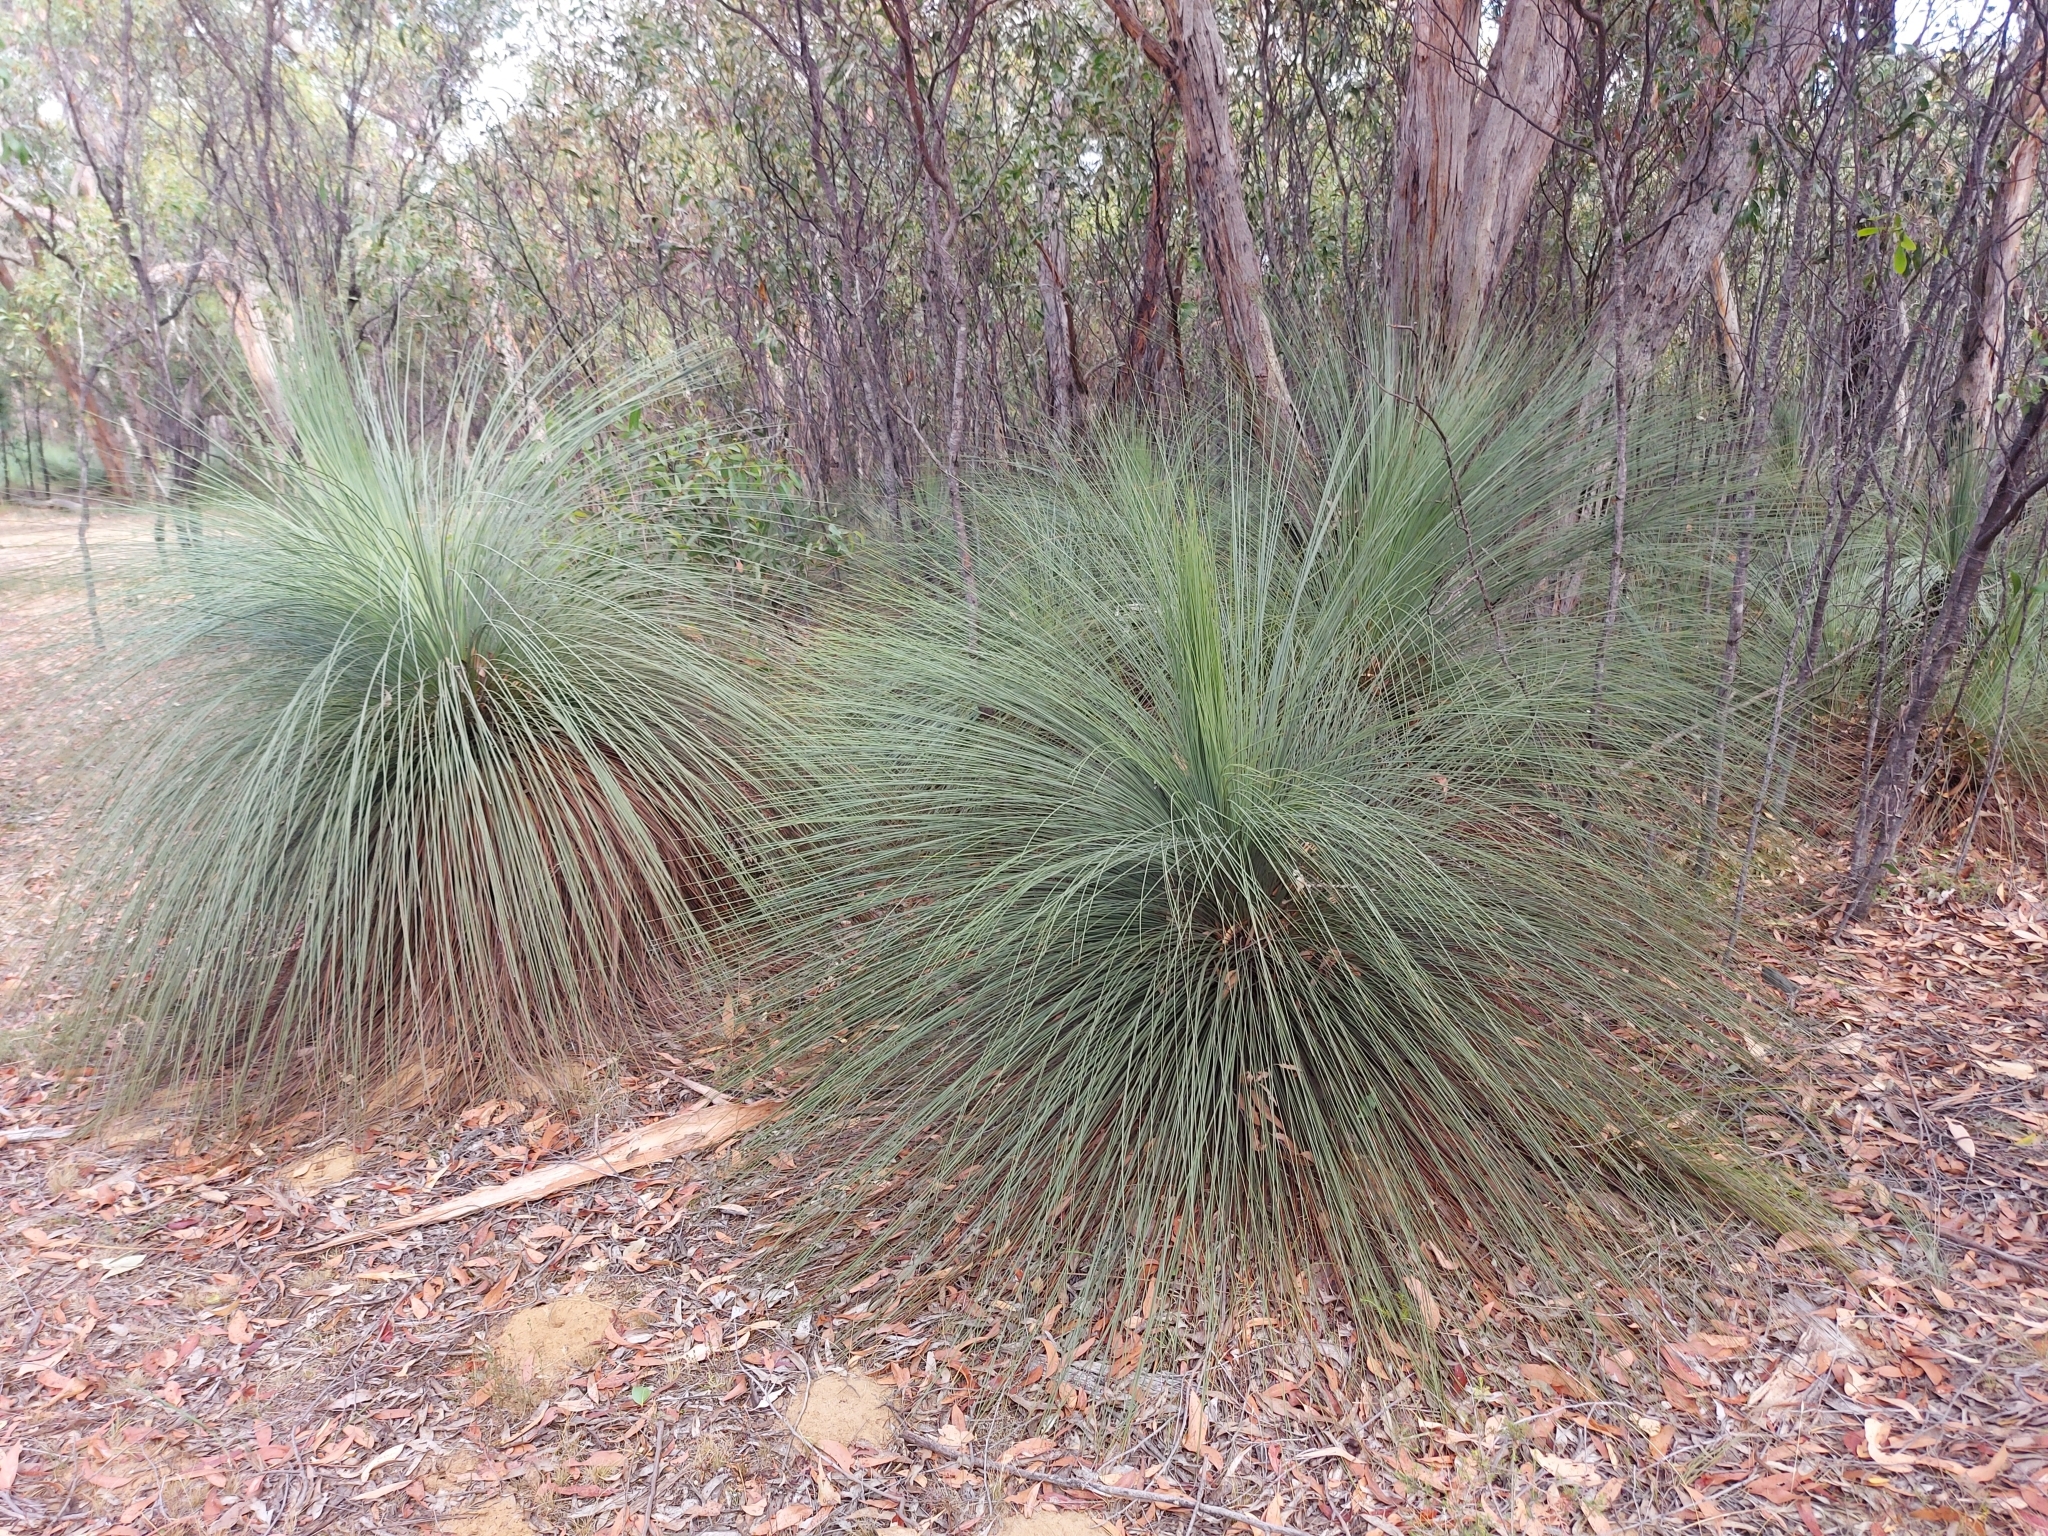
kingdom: Plantae
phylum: Tracheophyta
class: Liliopsida
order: Asparagales
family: Asphodelaceae
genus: Xanthorrhoea
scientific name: Xanthorrhoea australis
